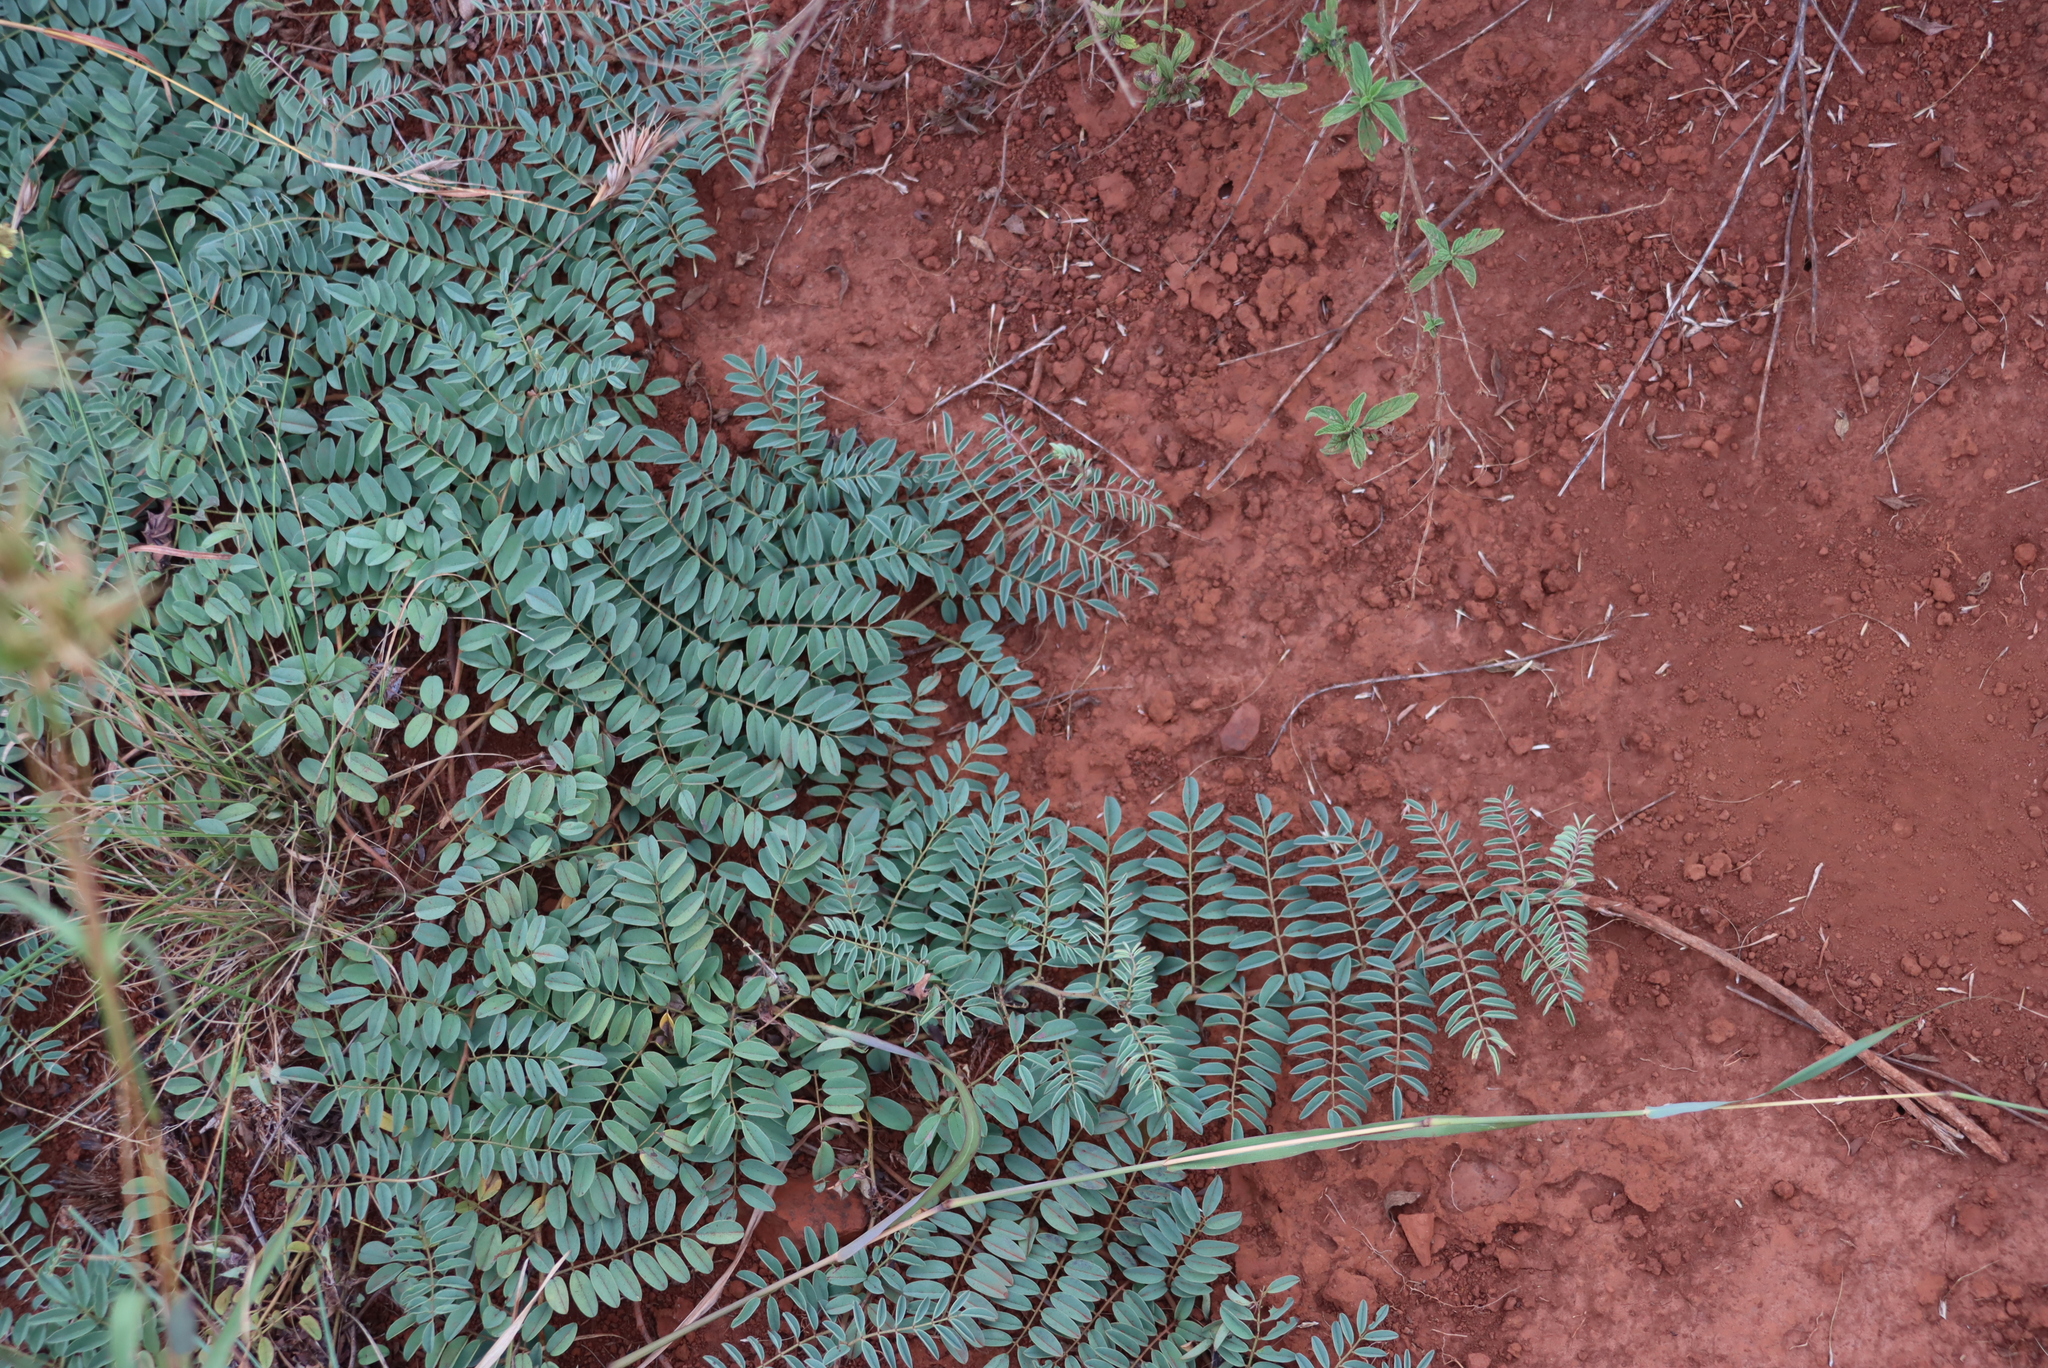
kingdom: Plantae
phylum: Tracheophyta
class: Magnoliopsida
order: Fabales
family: Fabaceae
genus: Indigofera
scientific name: Indigofera williamsonii
